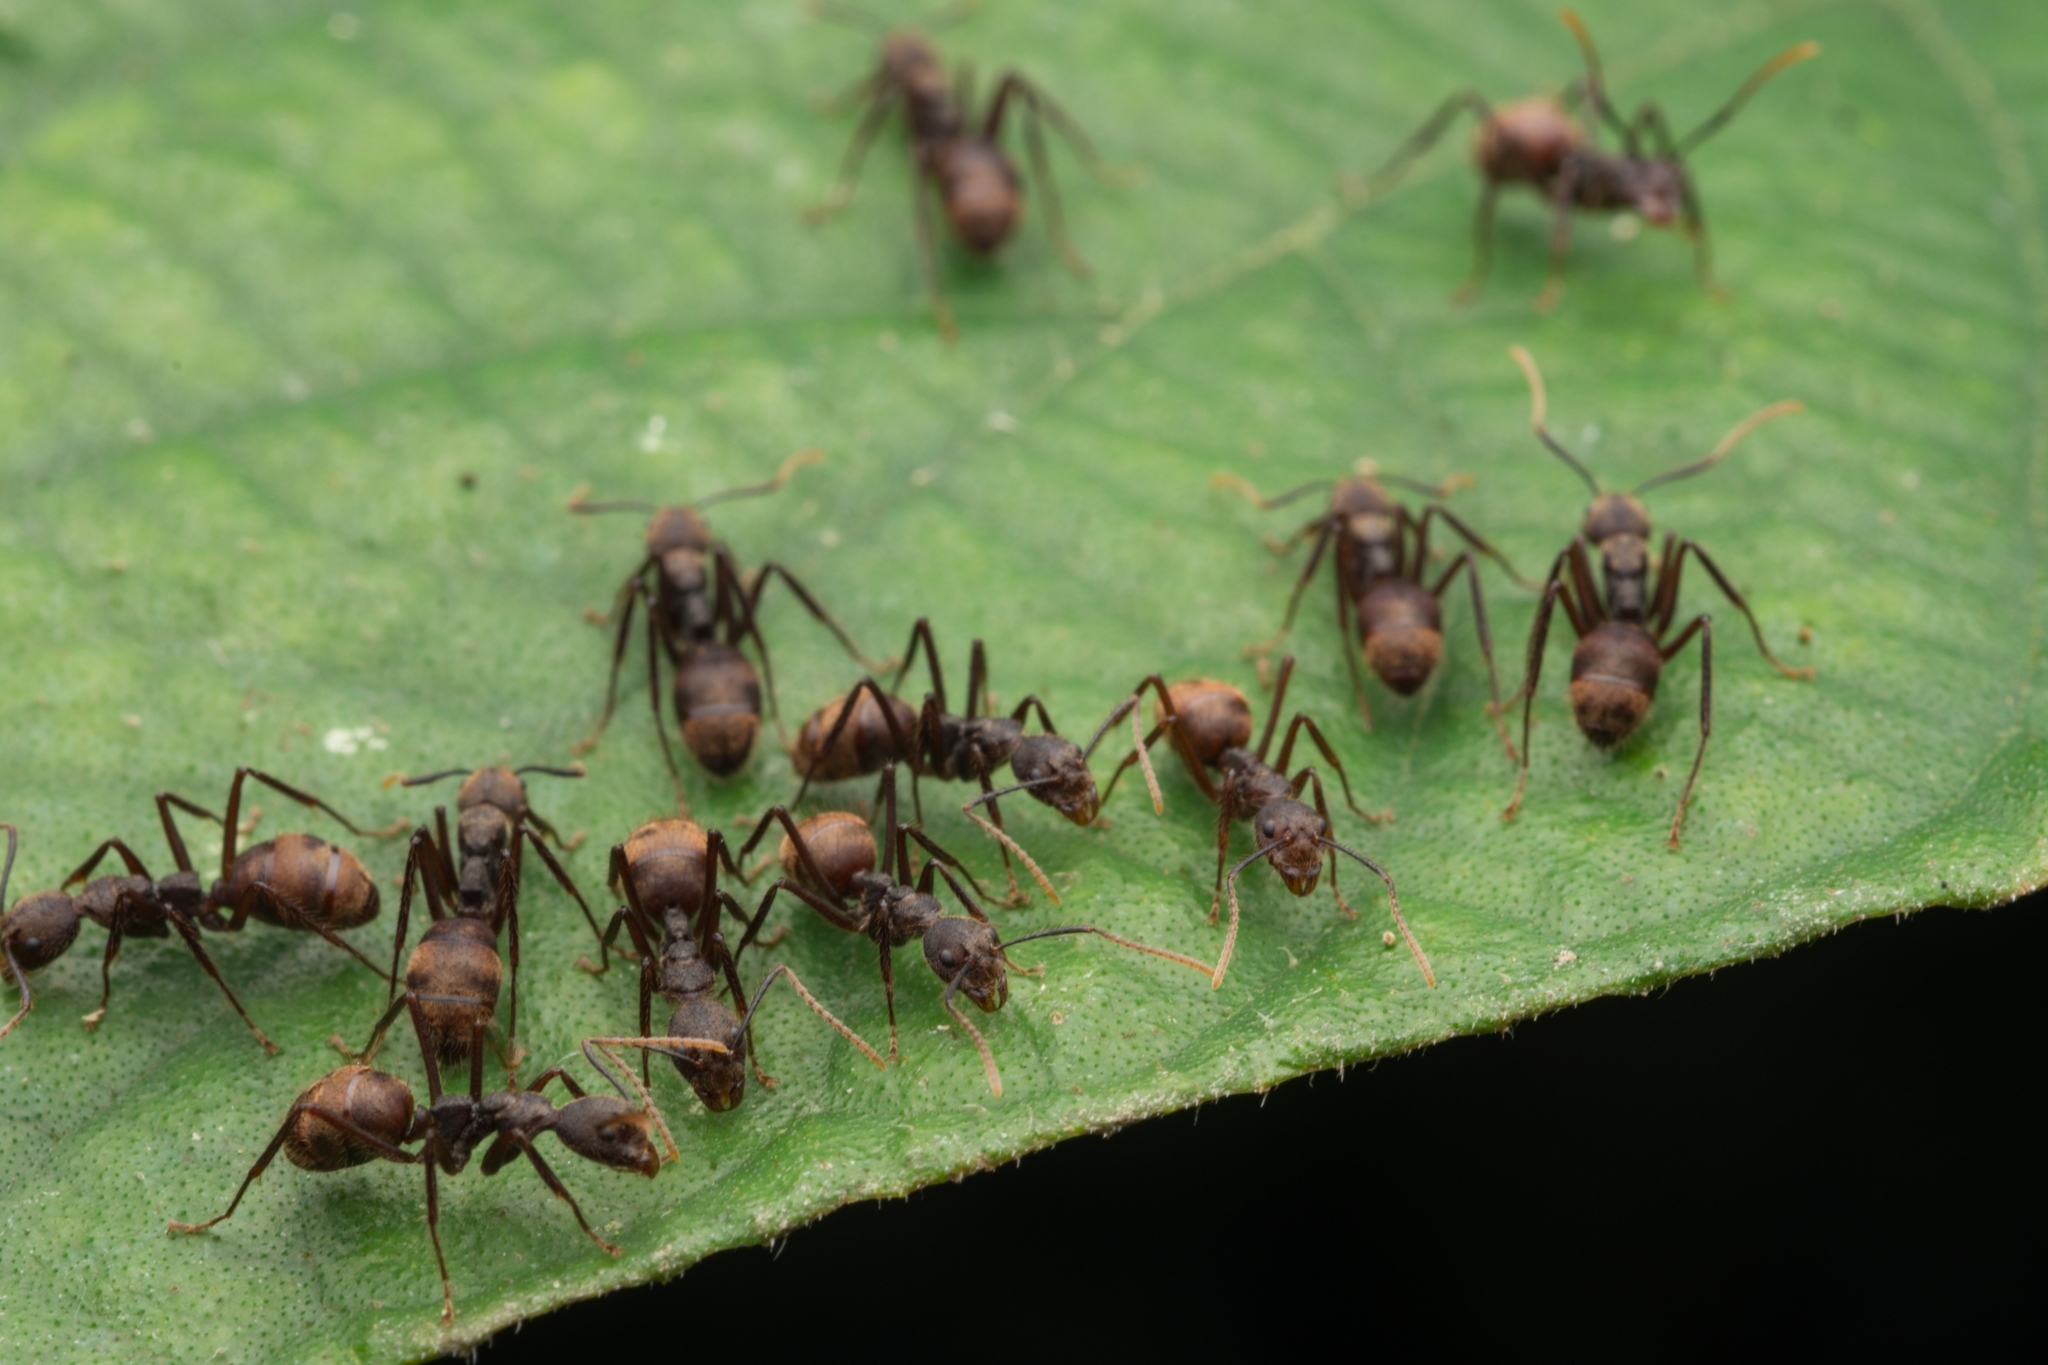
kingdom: Animalia
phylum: Arthropoda
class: Insecta
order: Hymenoptera
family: Formicidae
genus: Dolichoderus
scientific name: Dolichoderus spurius
